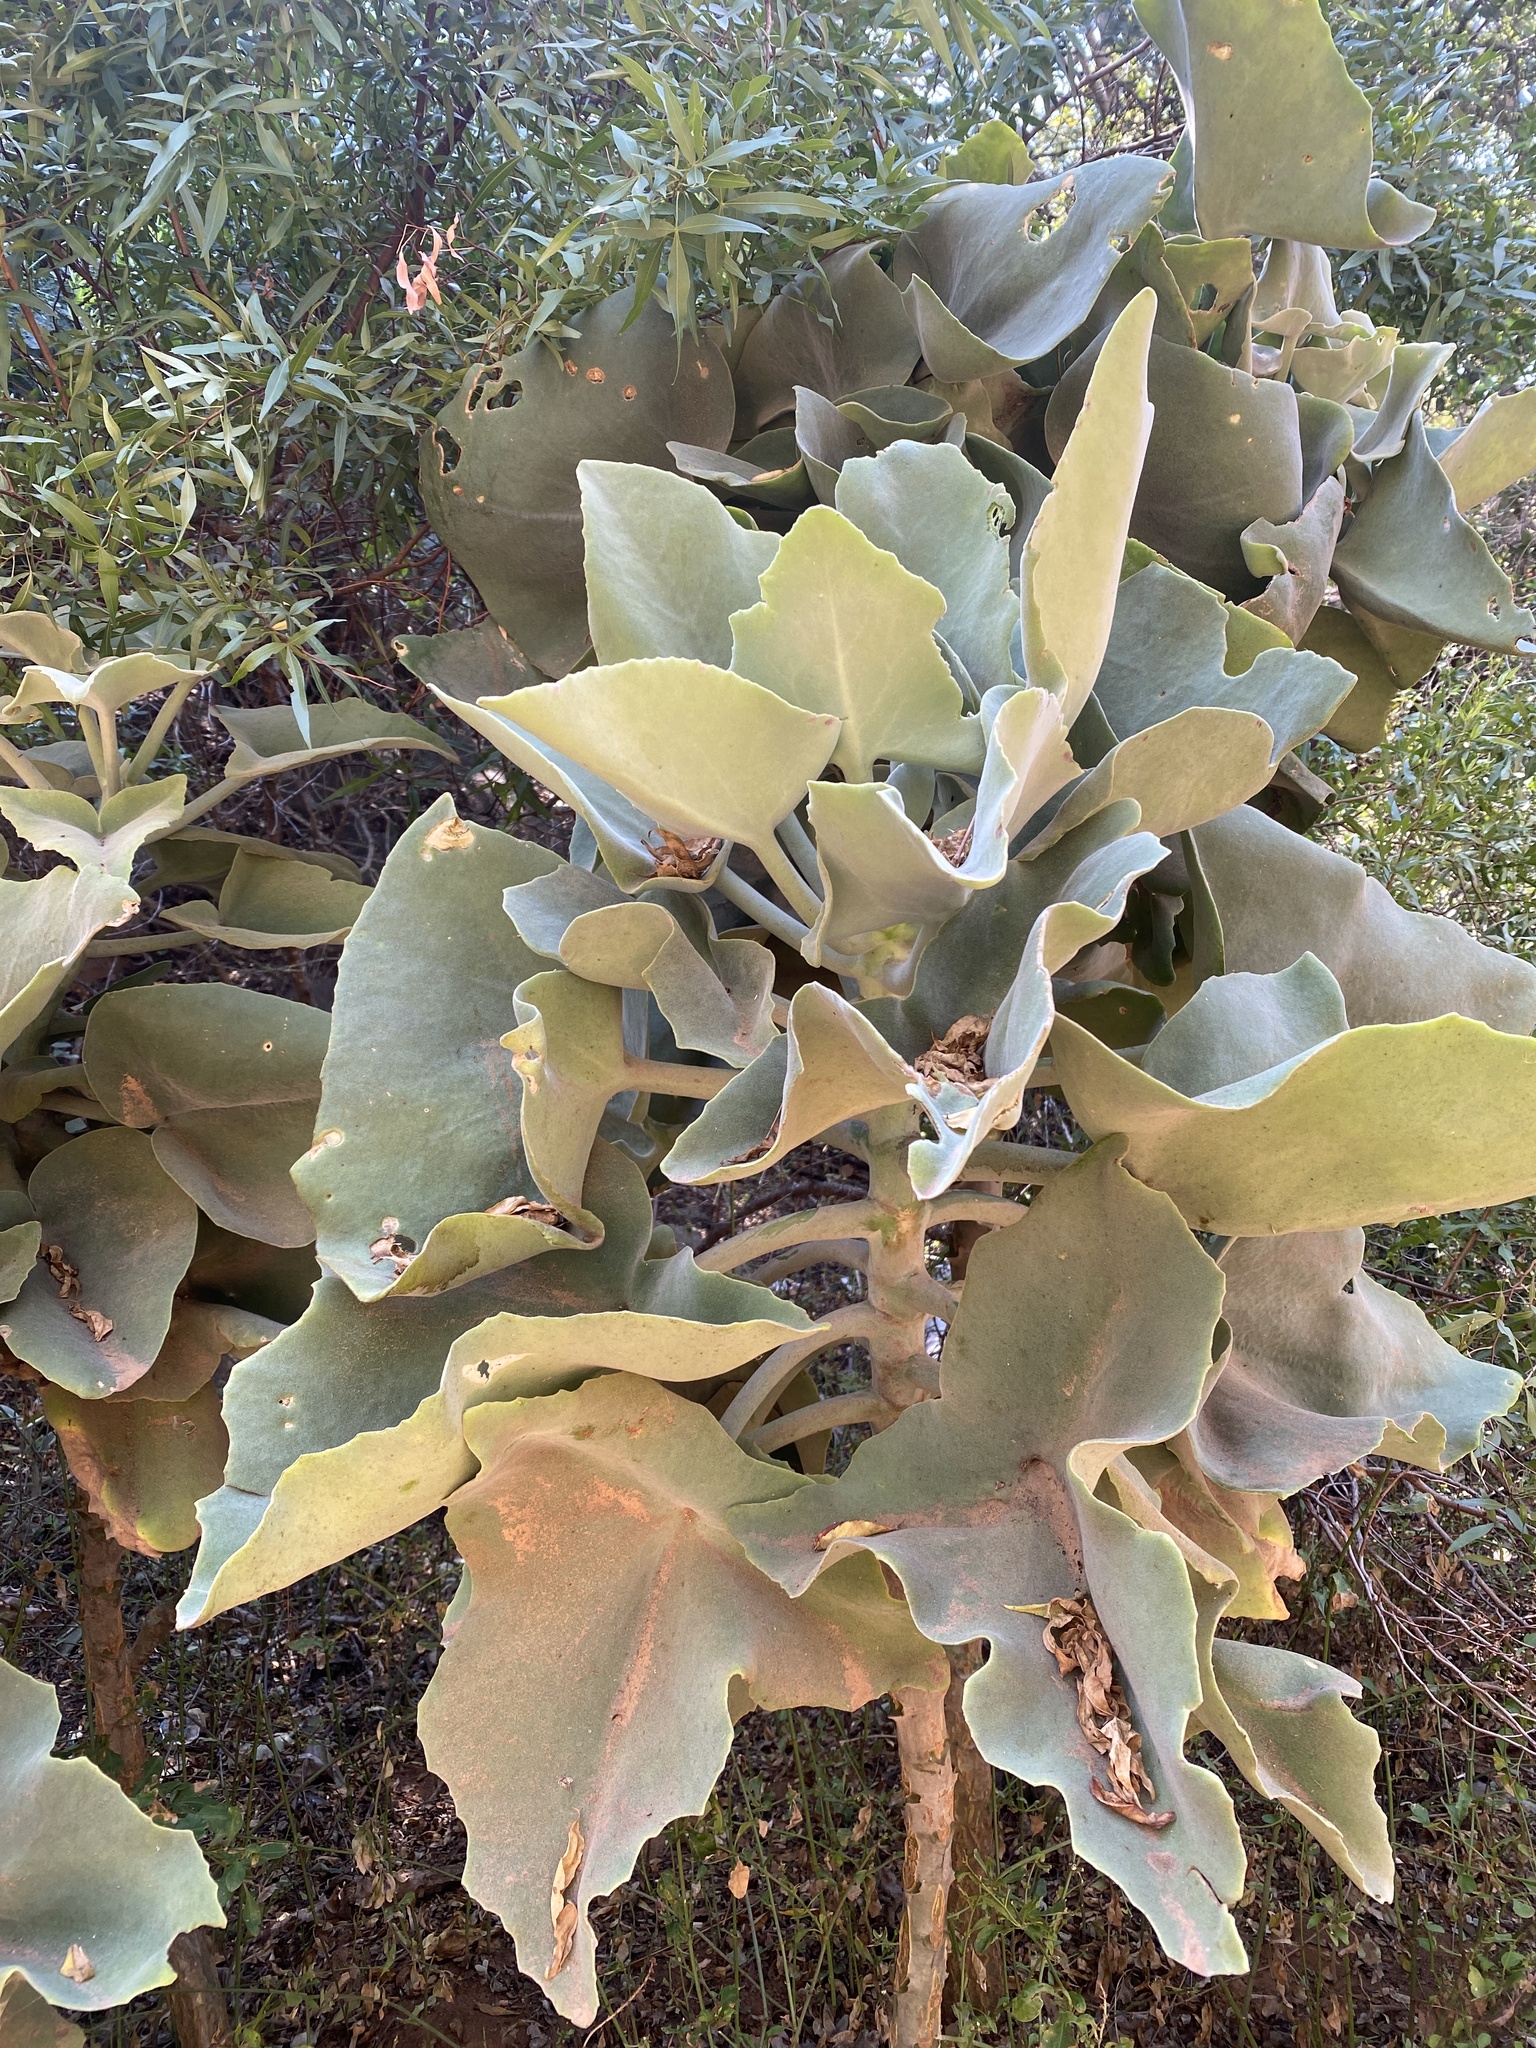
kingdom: Plantae
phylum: Tracheophyta
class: Magnoliopsida
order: Saxifragales
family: Crassulaceae
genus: Kalanchoe
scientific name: Kalanchoe beharensis
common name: Velvet leaf
